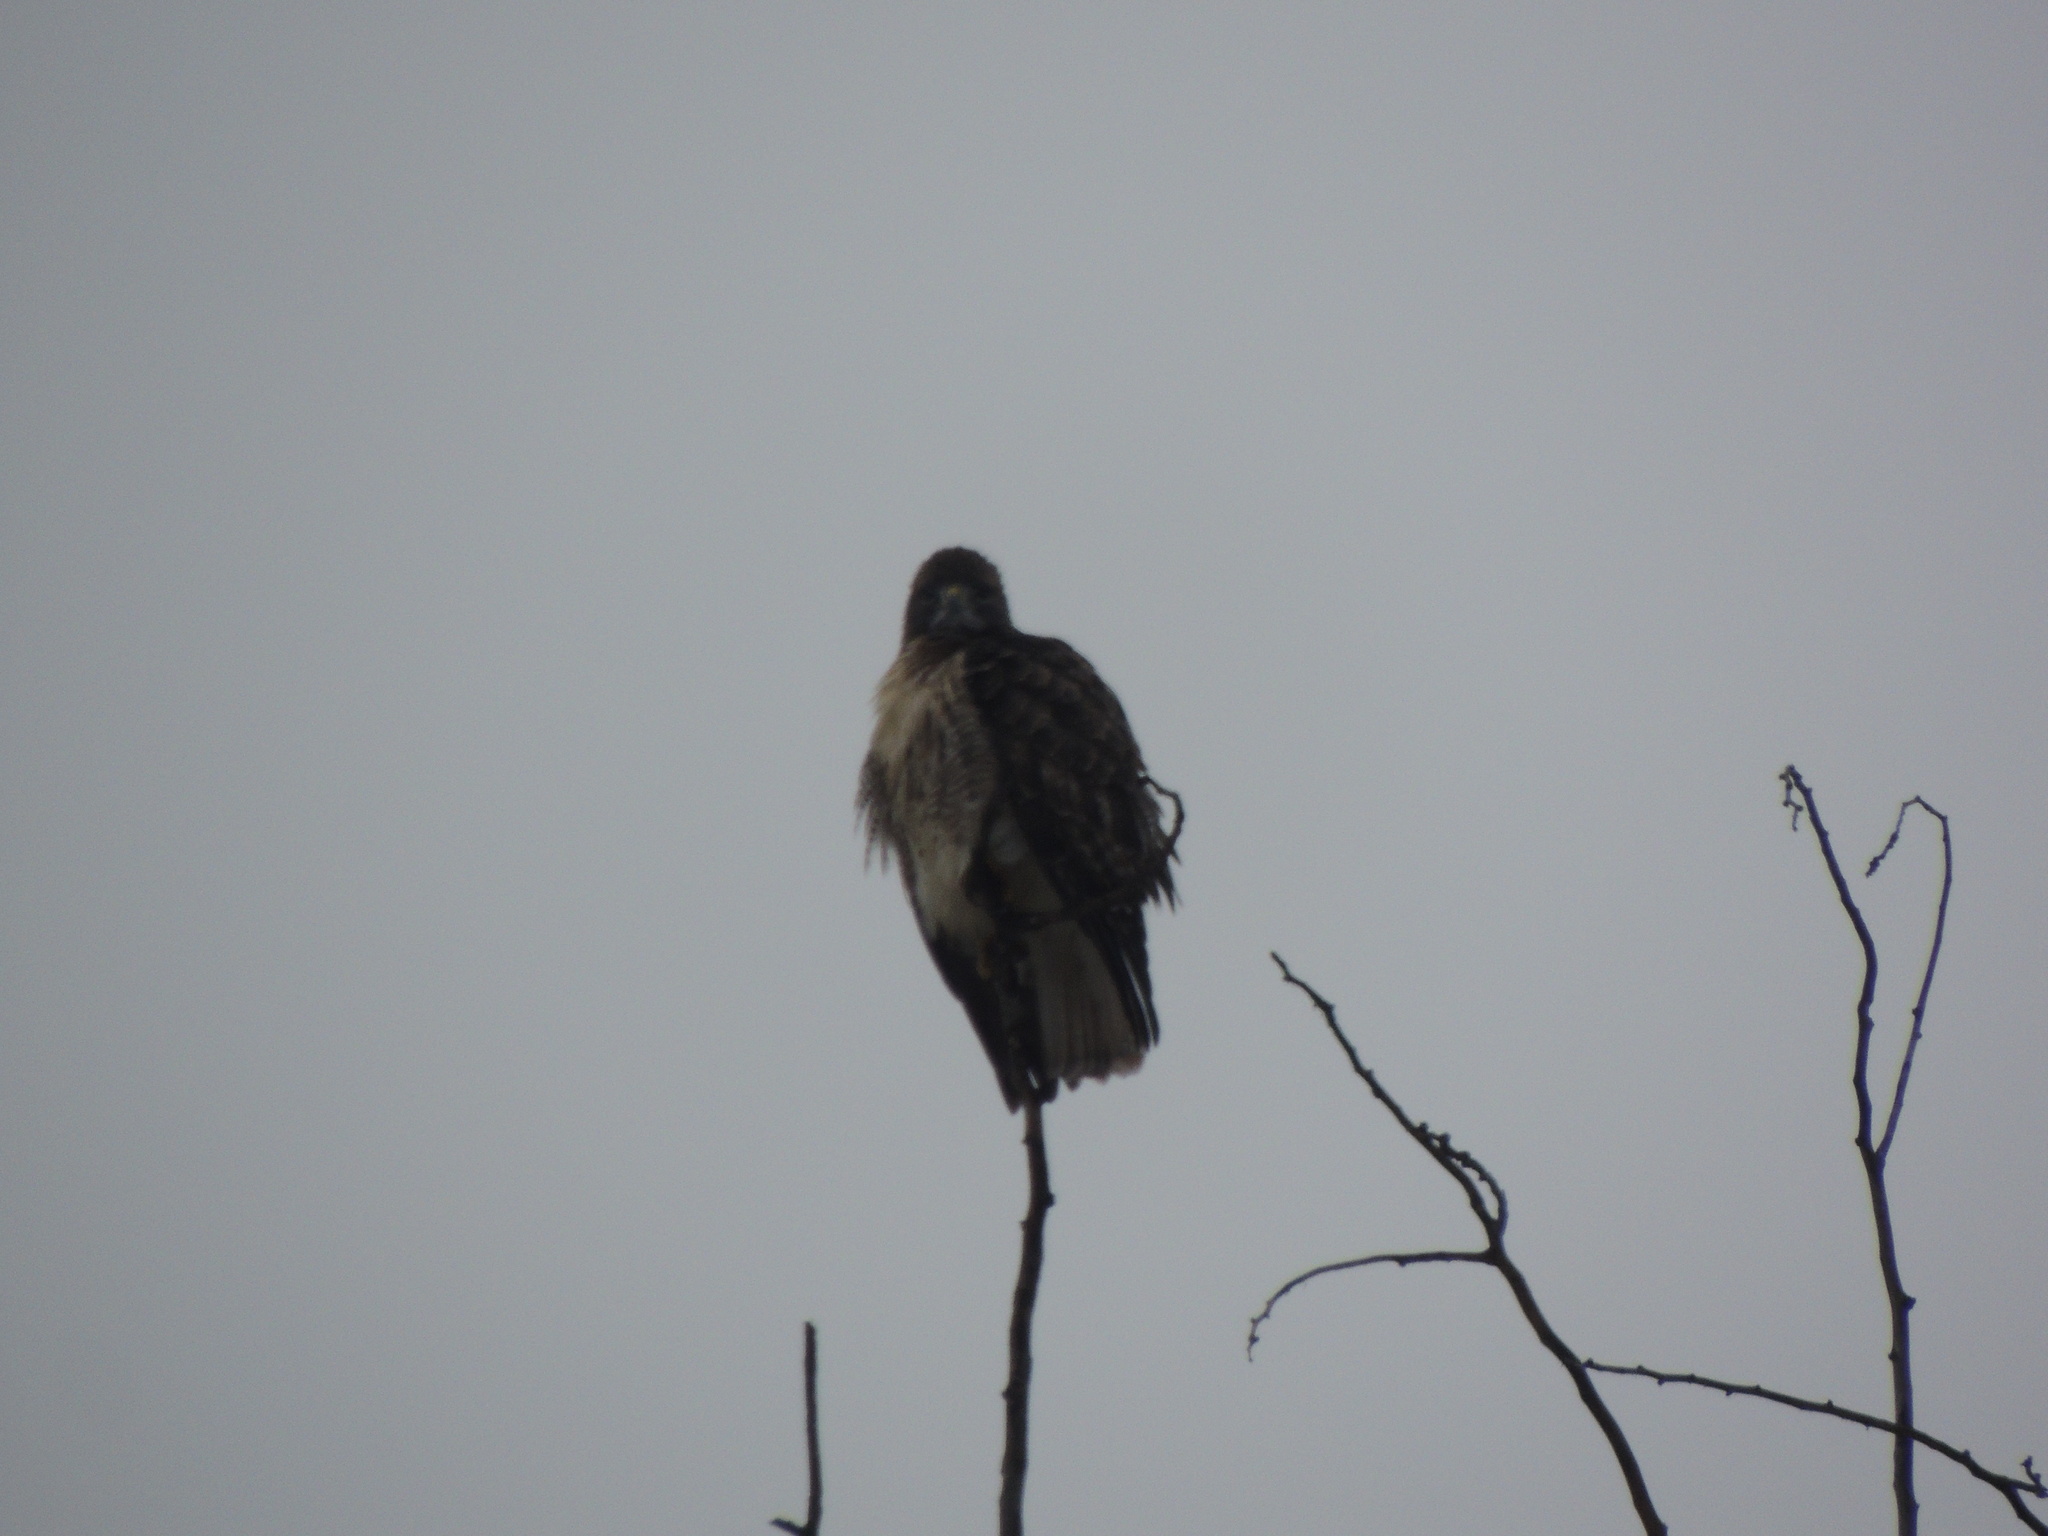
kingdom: Animalia
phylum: Chordata
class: Aves
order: Accipitriformes
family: Accipitridae
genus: Buteo
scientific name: Buteo jamaicensis
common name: Red-tailed hawk
